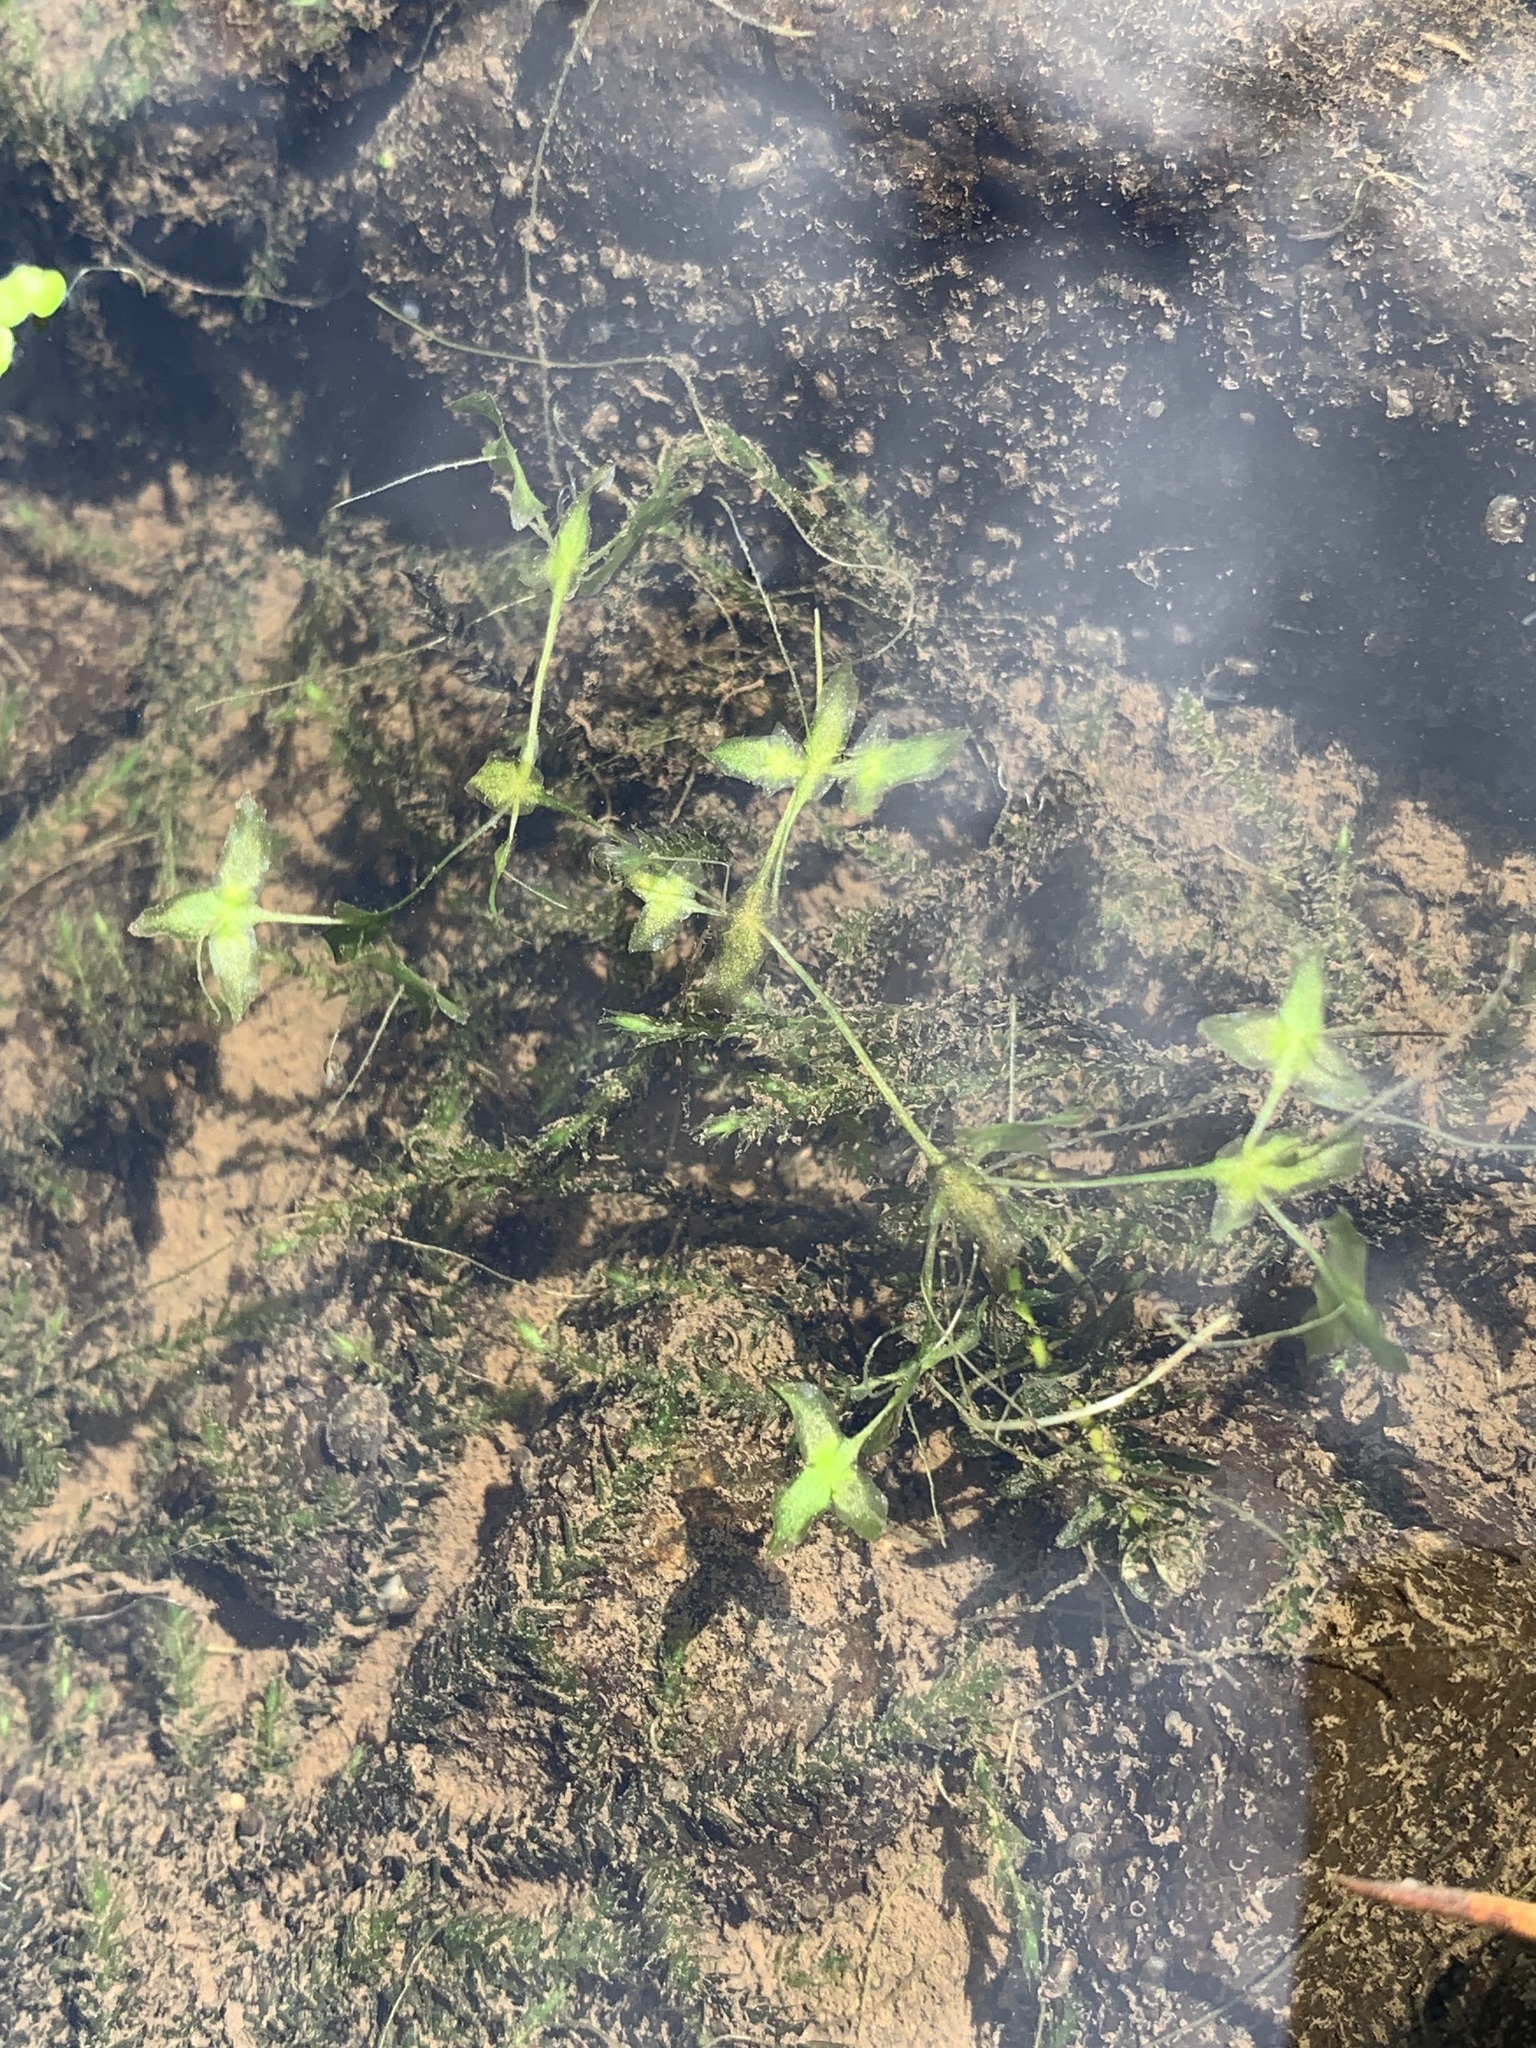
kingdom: Plantae
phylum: Tracheophyta
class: Liliopsida
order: Alismatales
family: Araceae
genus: Lemna
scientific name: Lemna trisulca
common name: Ivy-leaved duckweed
